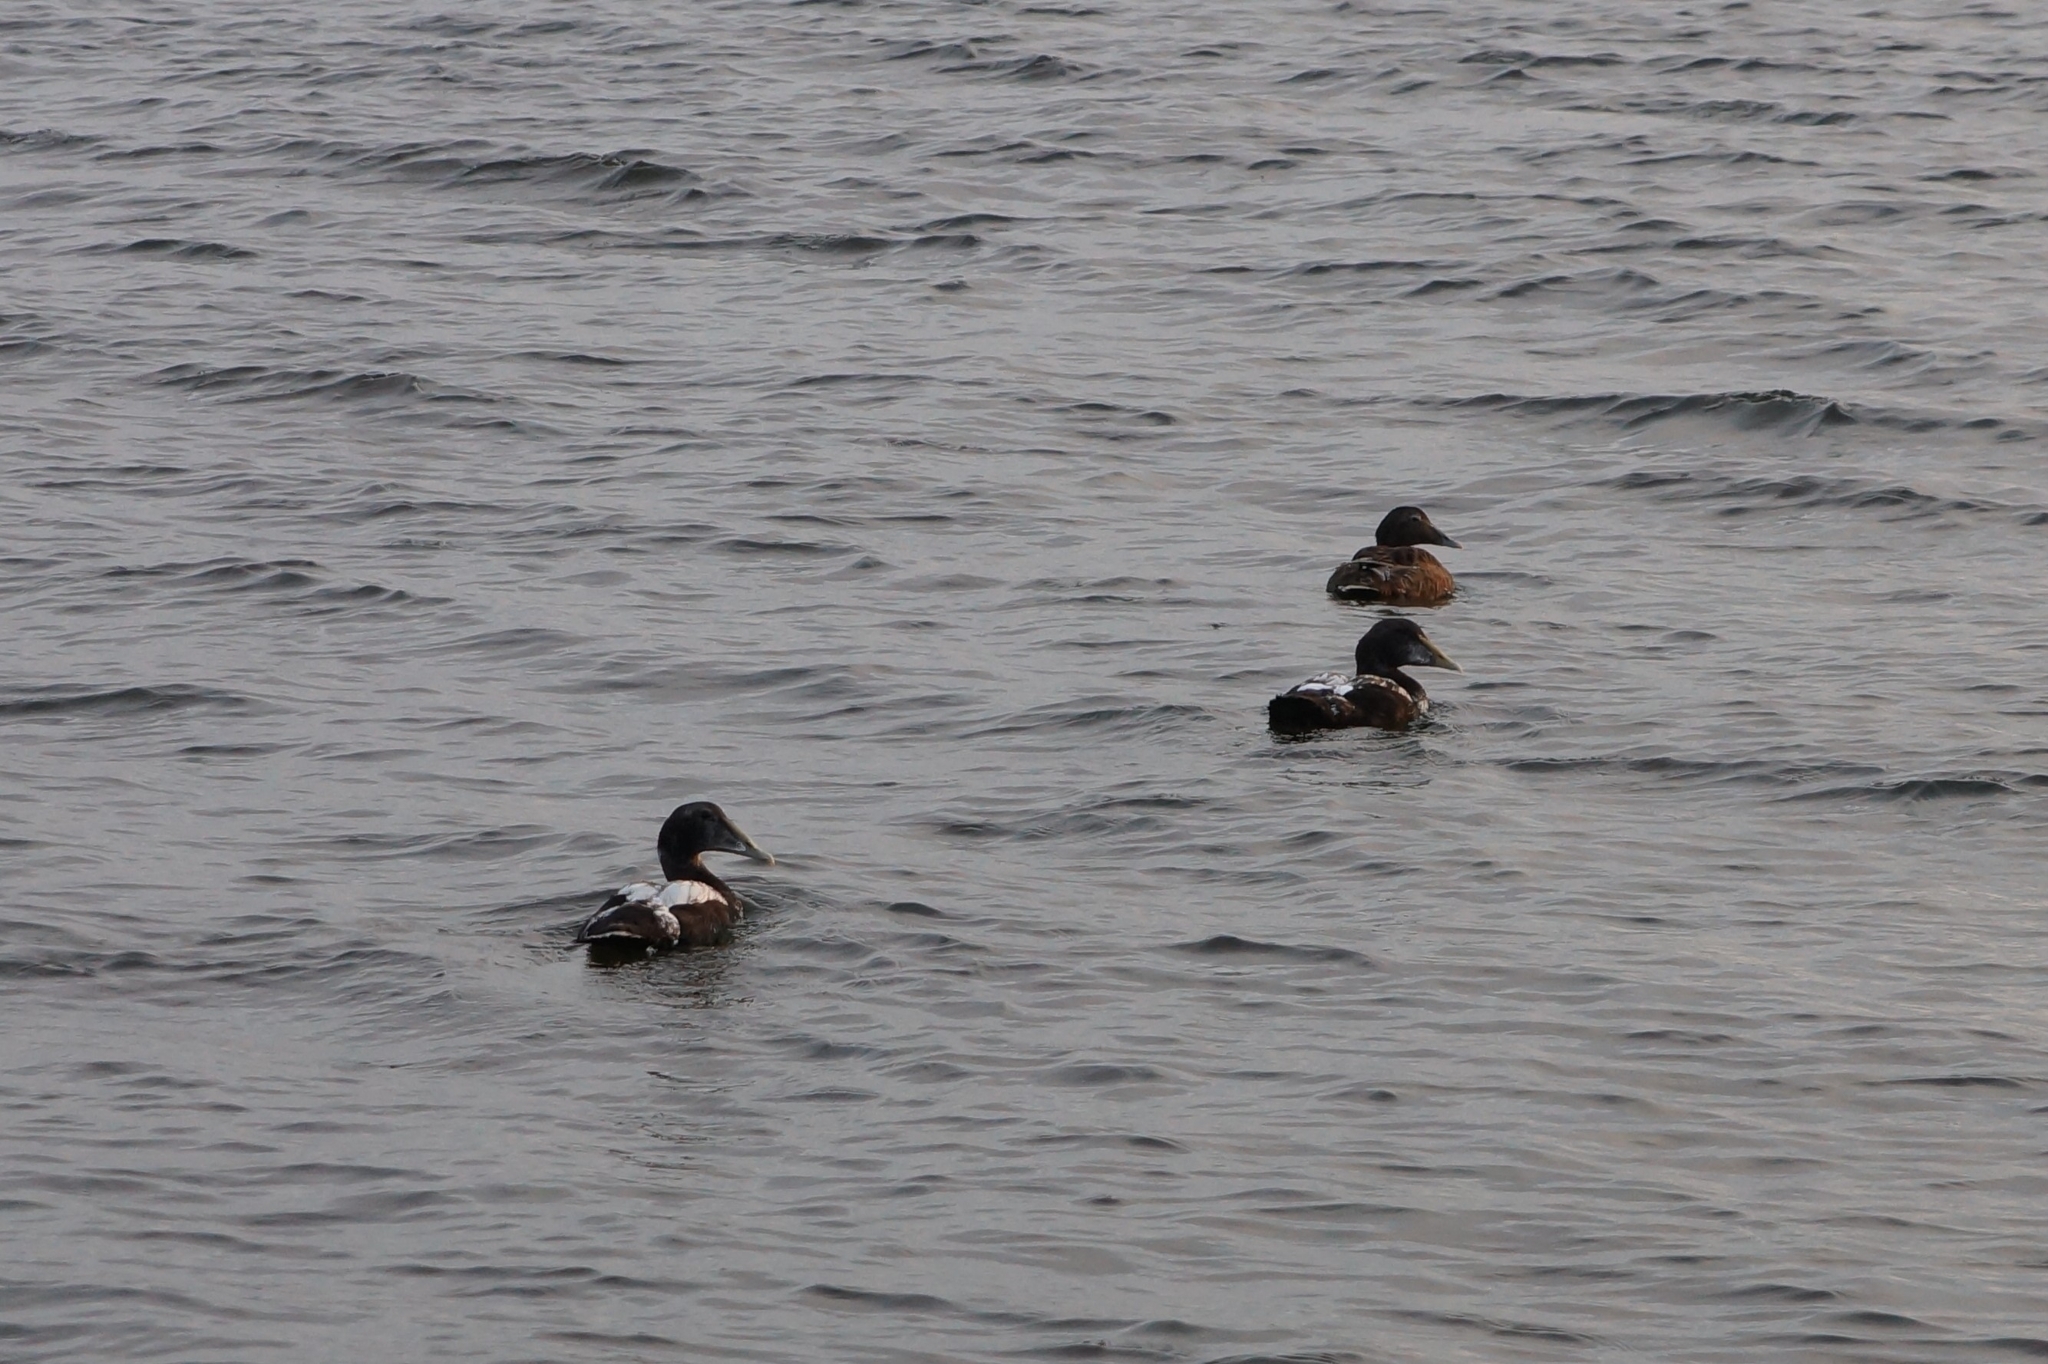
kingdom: Animalia
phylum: Chordata
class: Aves
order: Anseriformes
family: Anatidae
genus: Somateria
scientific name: Somateria mollissima
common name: Common eider
